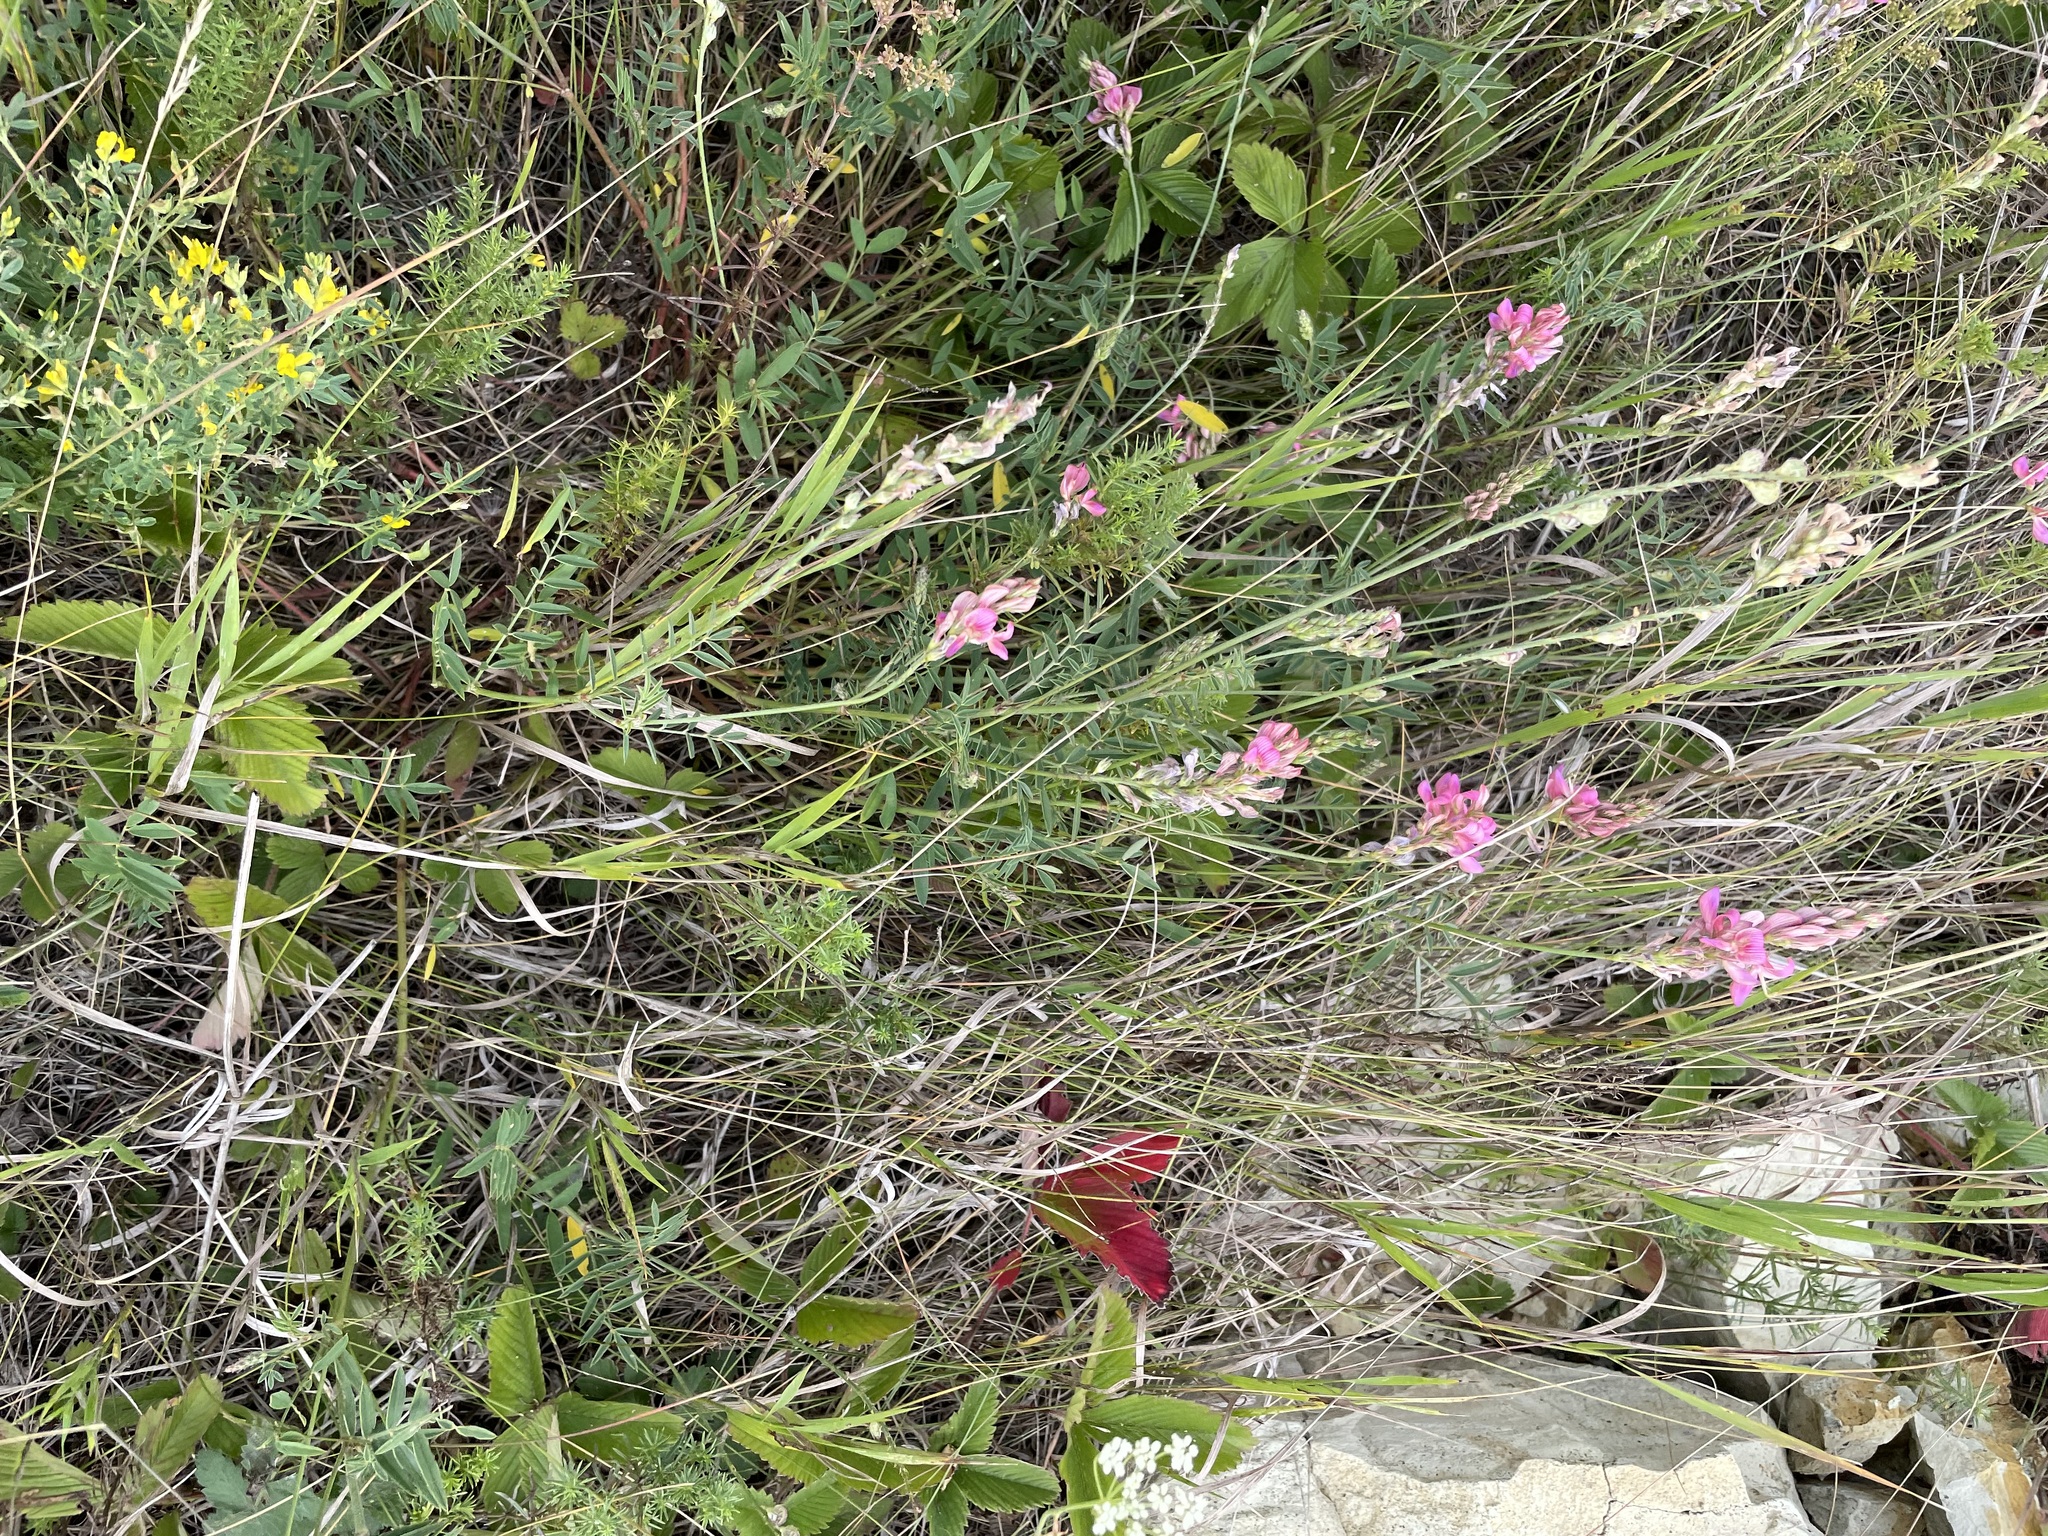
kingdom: Plantae
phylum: Tracheophyta
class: Magnoliopsida
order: Fabales
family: Fabaceae
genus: Onobrychis
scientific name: Onobrychis arenaria
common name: Sand esparcet
